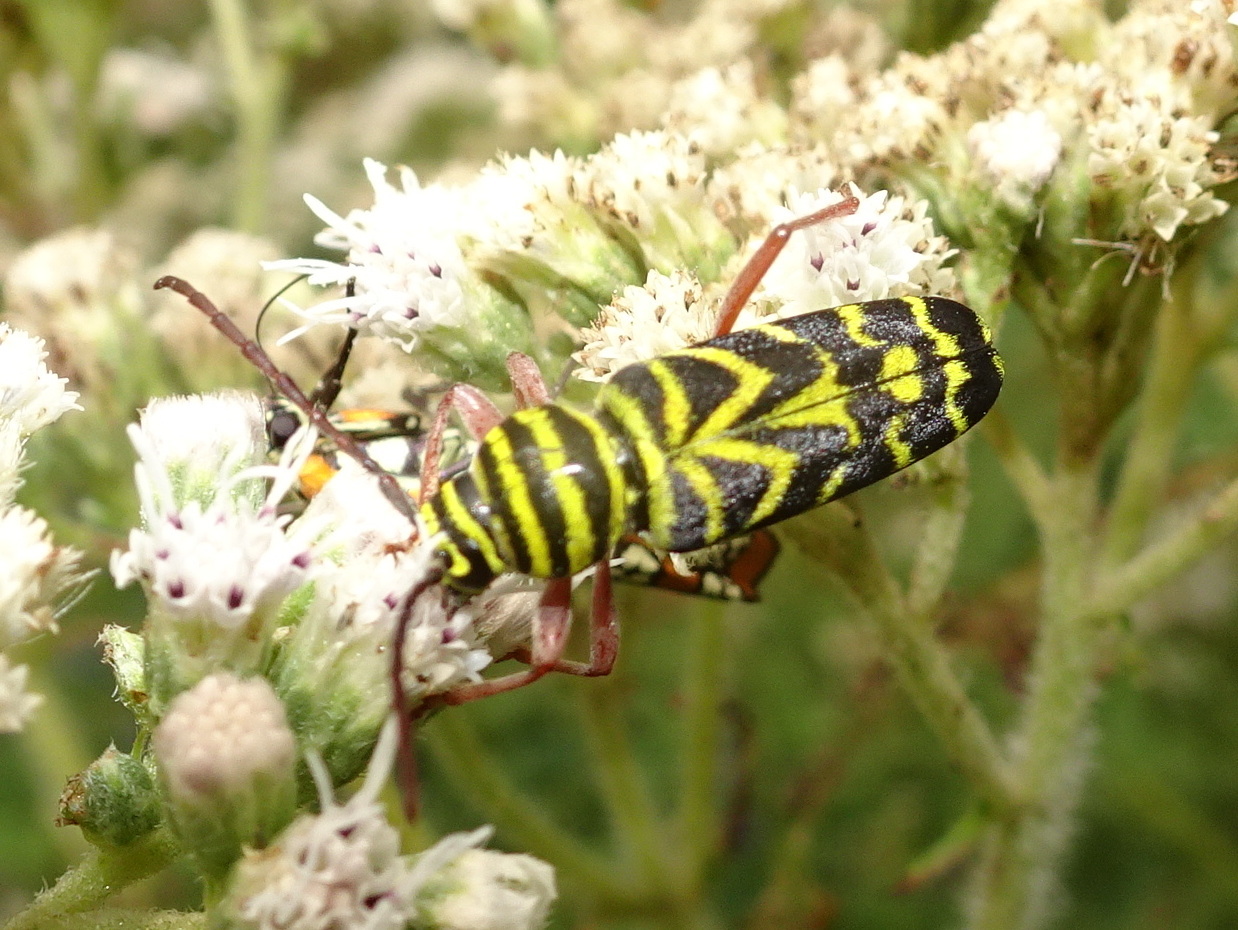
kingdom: Animalia
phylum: Arthropoda
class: Insecta
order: Coleoptera
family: Cerambycidae
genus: Megacyllene
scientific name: Megacyllene robiniae
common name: Locust borer
